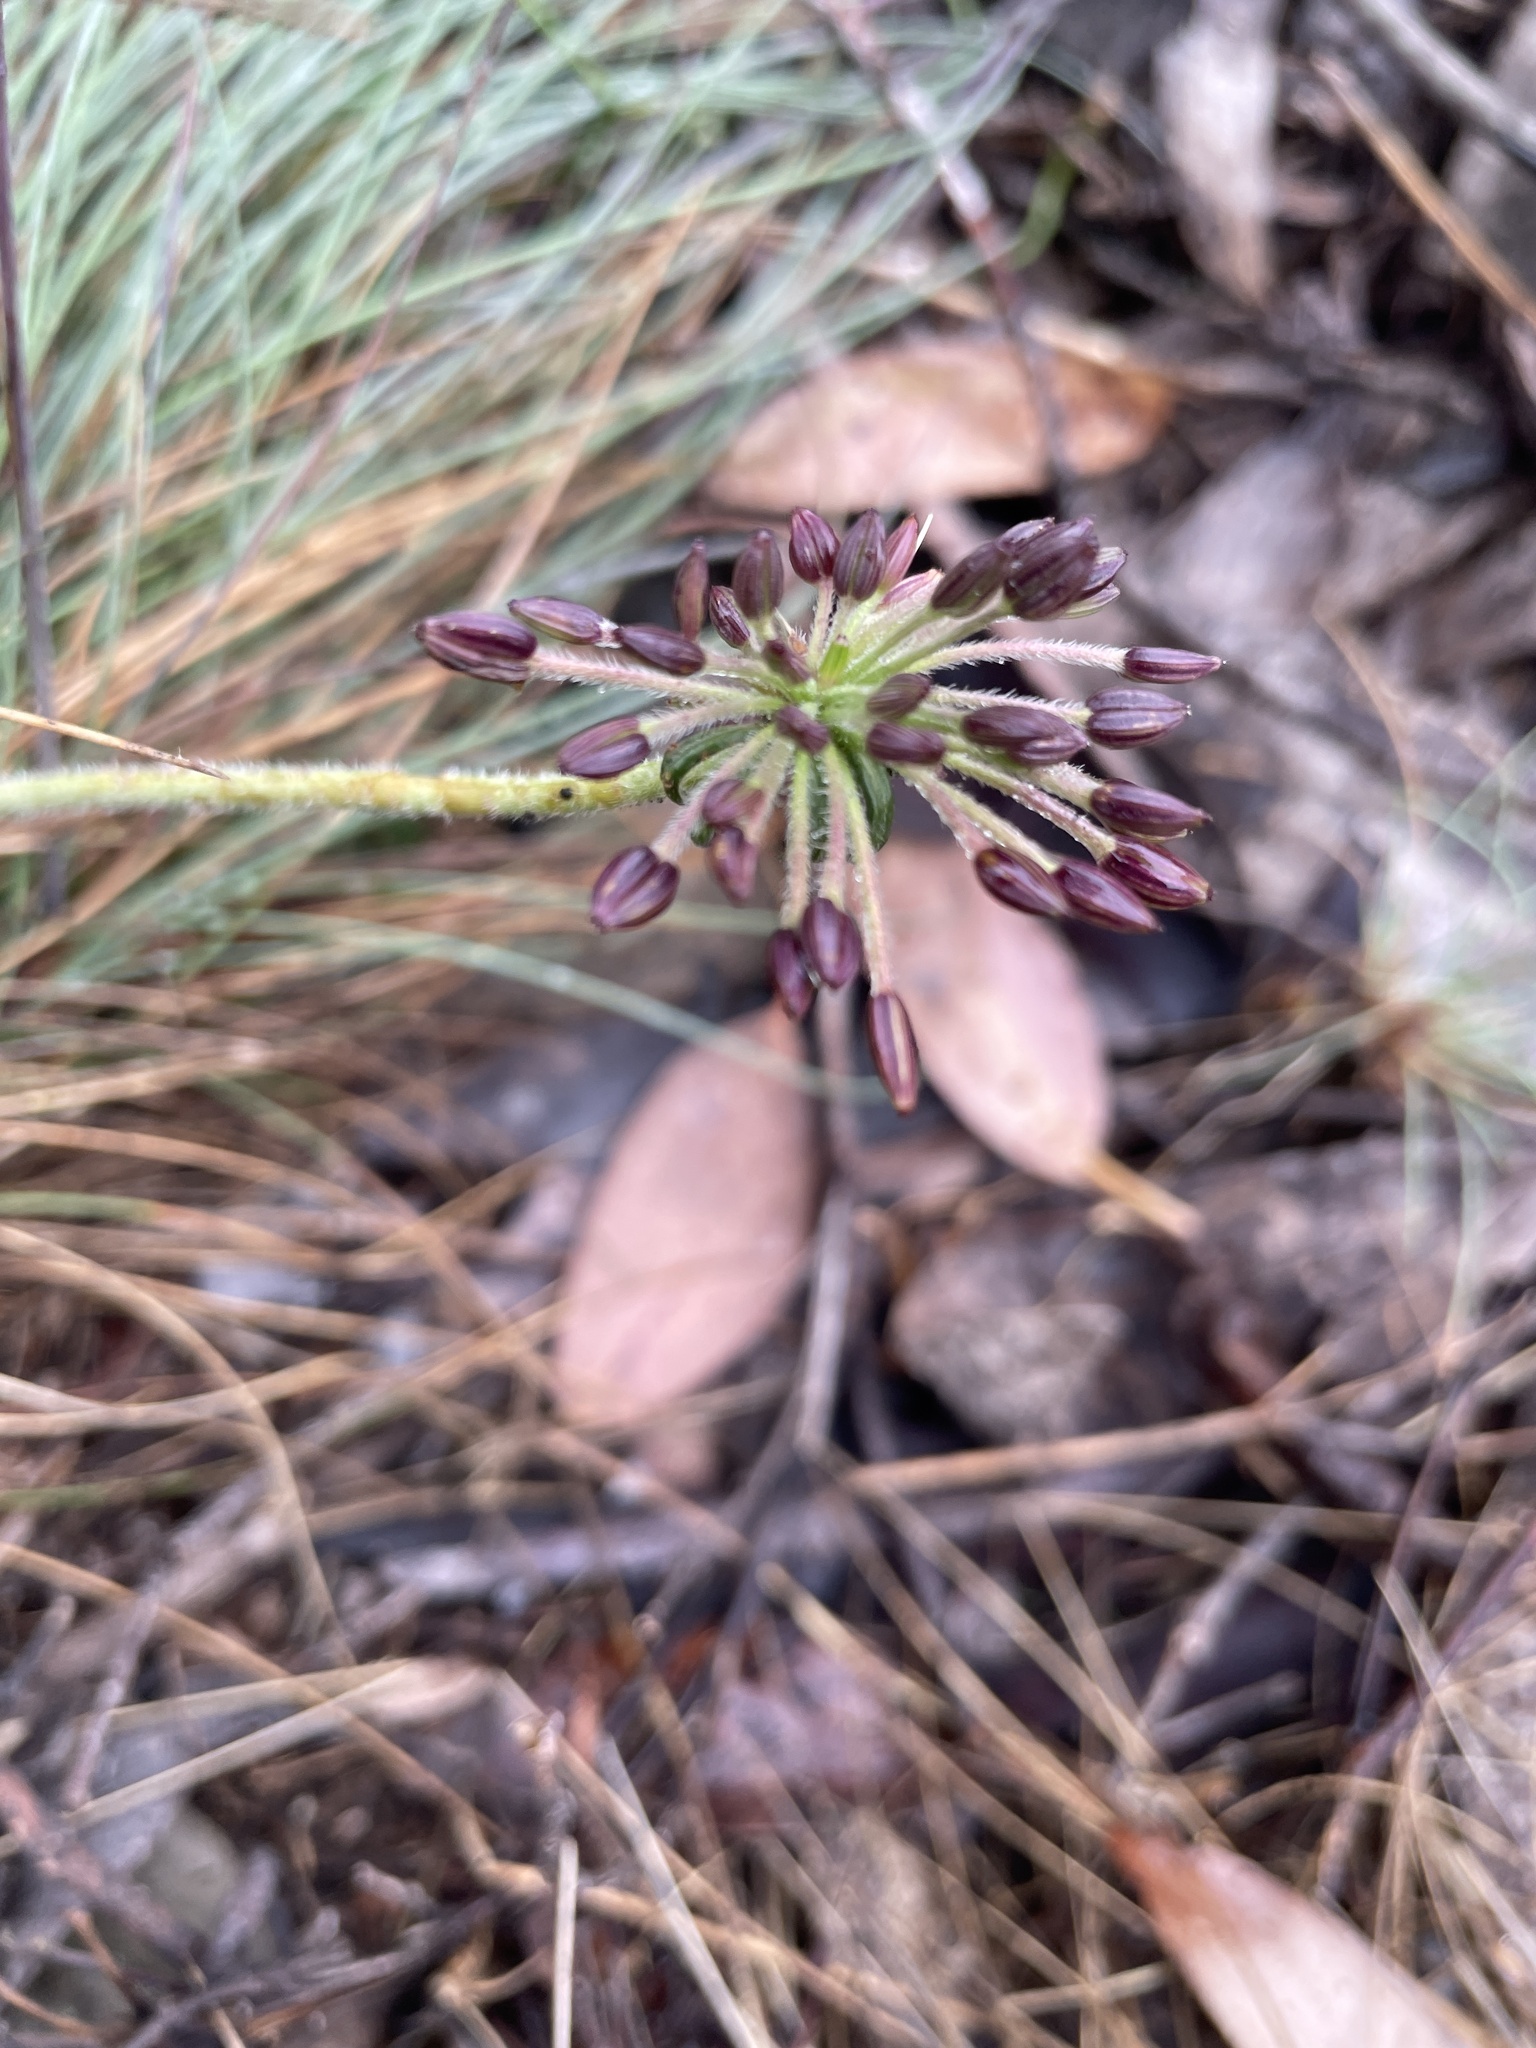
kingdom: Plantae
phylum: Tracheophyta
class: Magnoliopsida
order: Apiales
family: Apiaceae
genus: Chaerophyllum
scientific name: Chaerophyllum eriopodum
